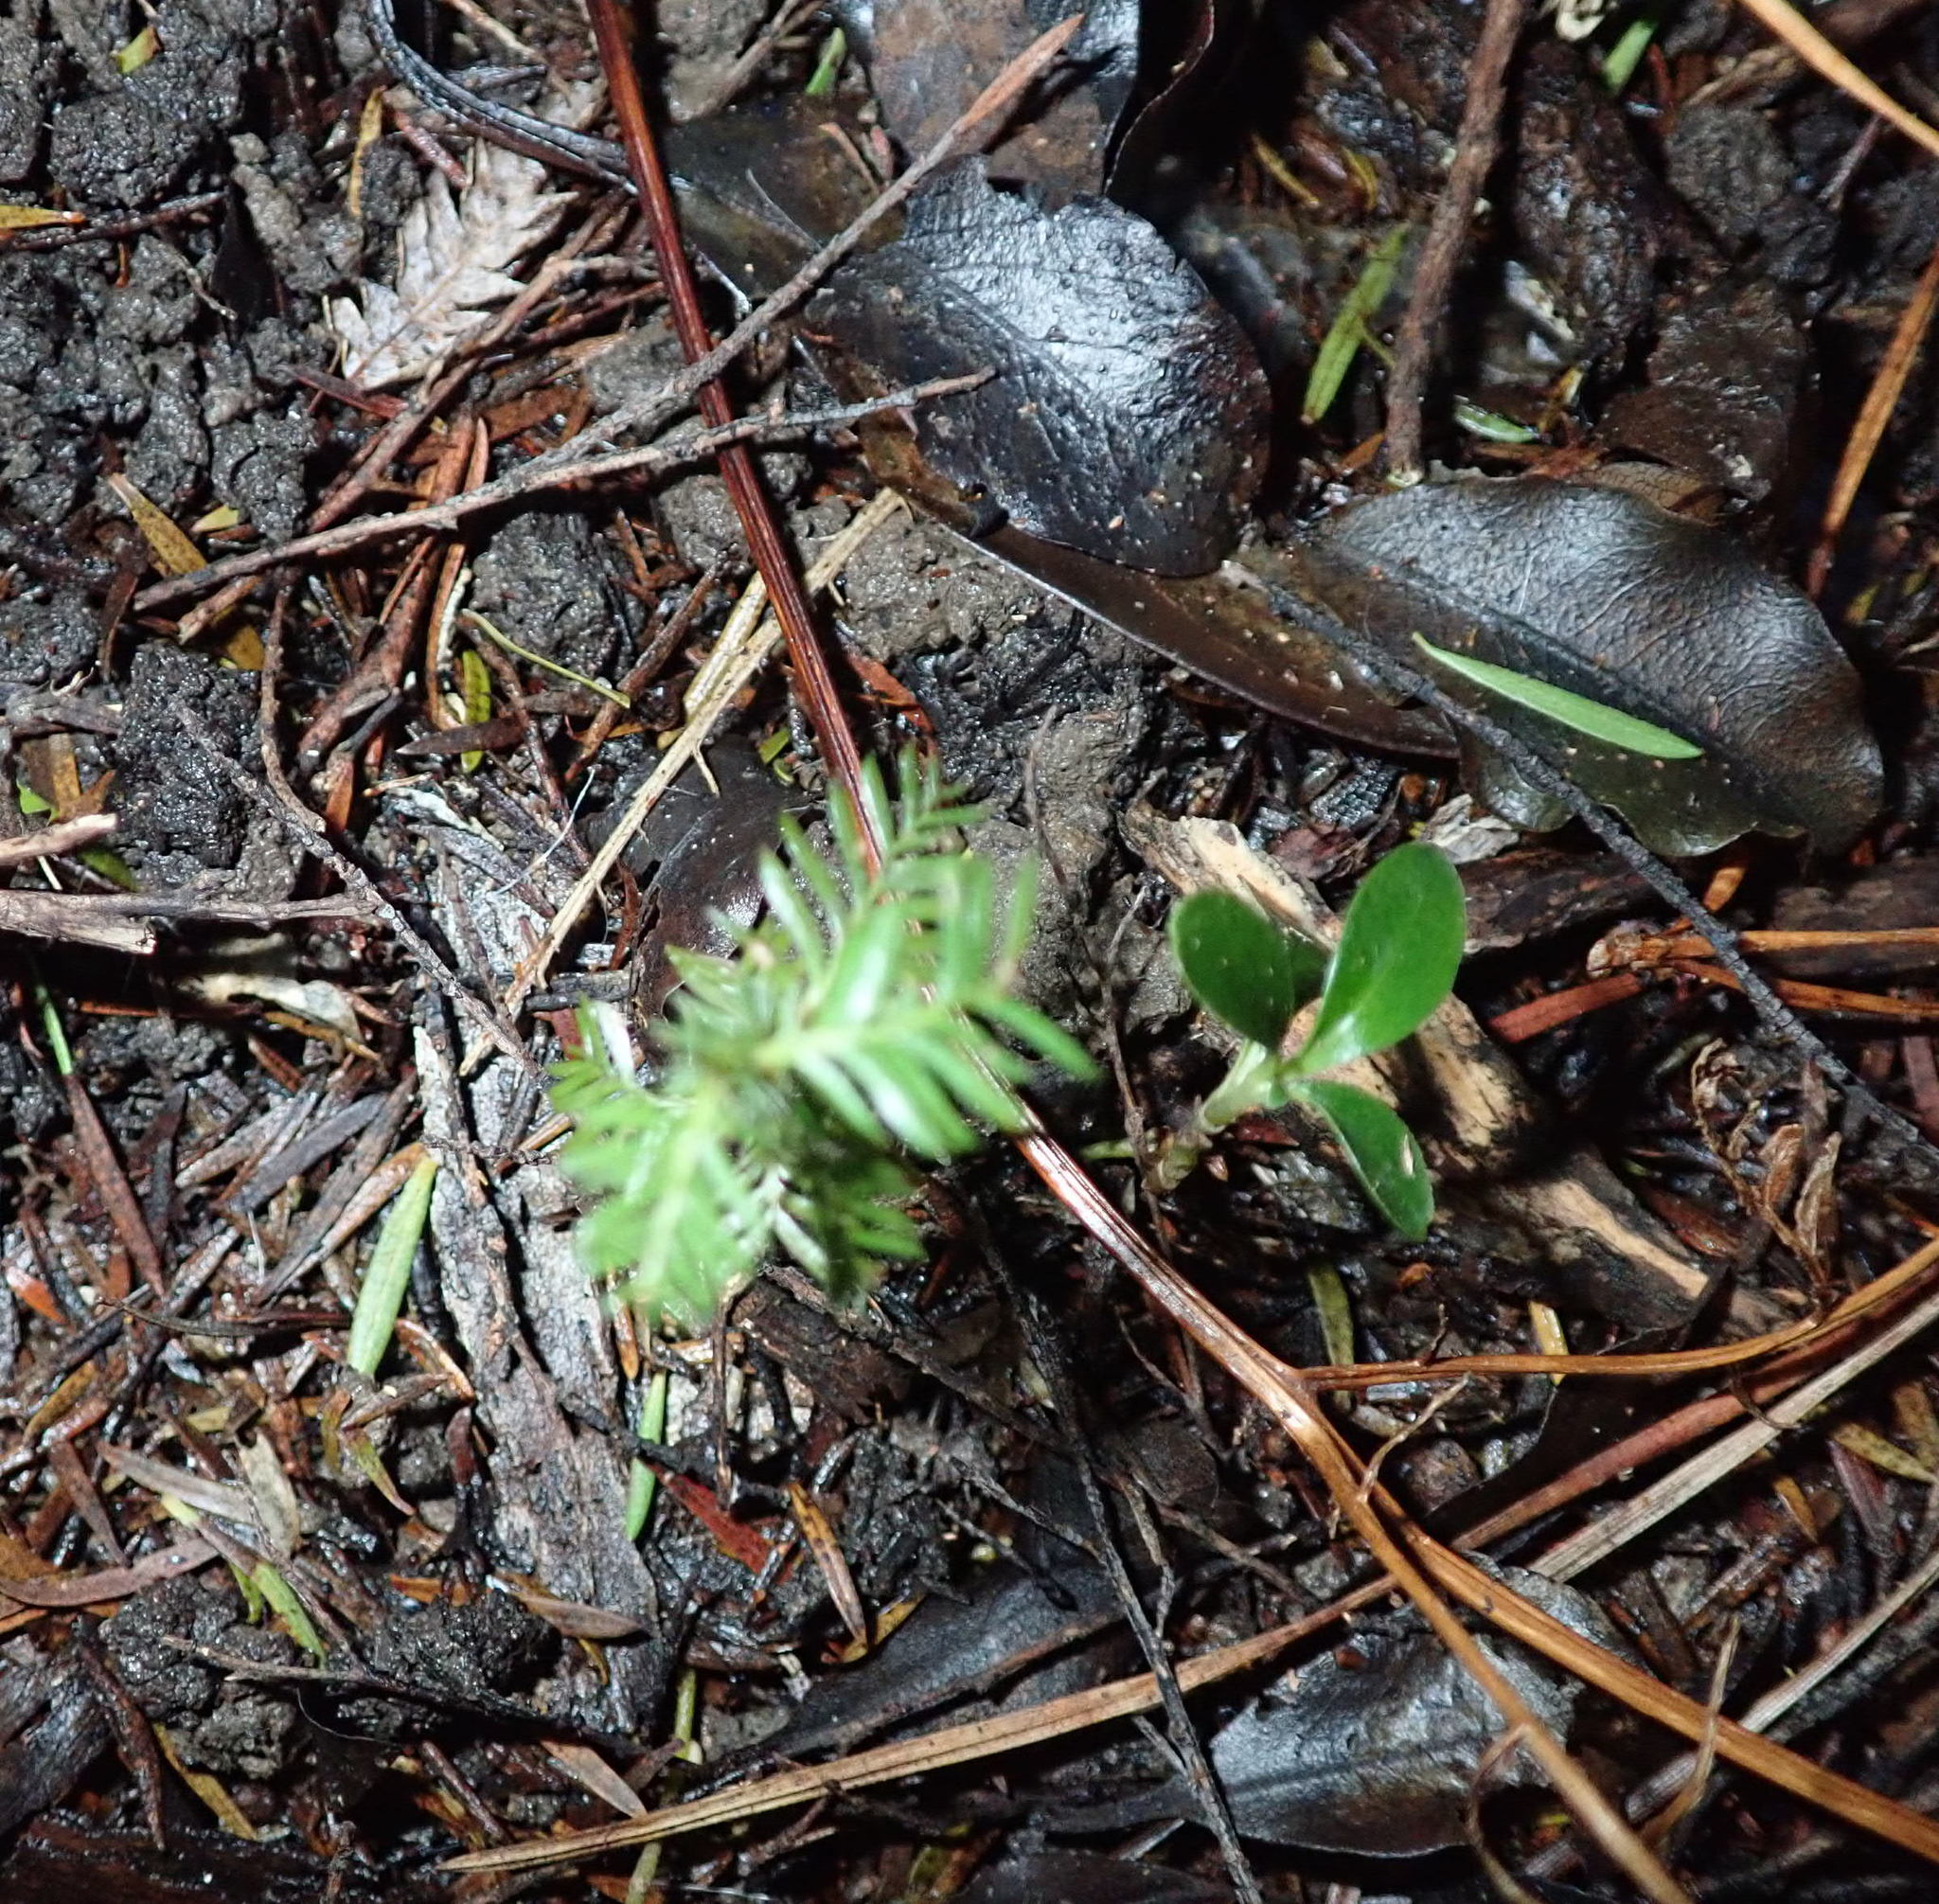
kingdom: Plantae
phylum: Tracheophyta
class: Pinopsida
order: Pinales
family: Podocarpaceae
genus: Dacrycarpus
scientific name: Dacrycarpus dacrydioides
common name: White pine
